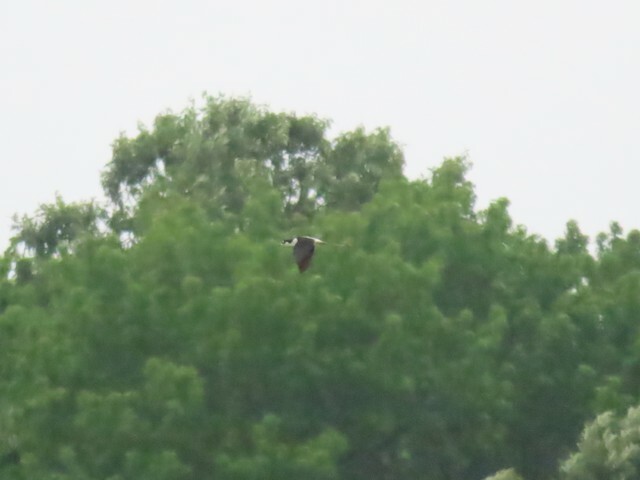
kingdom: Animalia
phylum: Chordata
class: Aves
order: Charadriiformes
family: Recurvirostridae
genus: Himantopus
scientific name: Himantopus mexicanus
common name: Black-necked stilt
